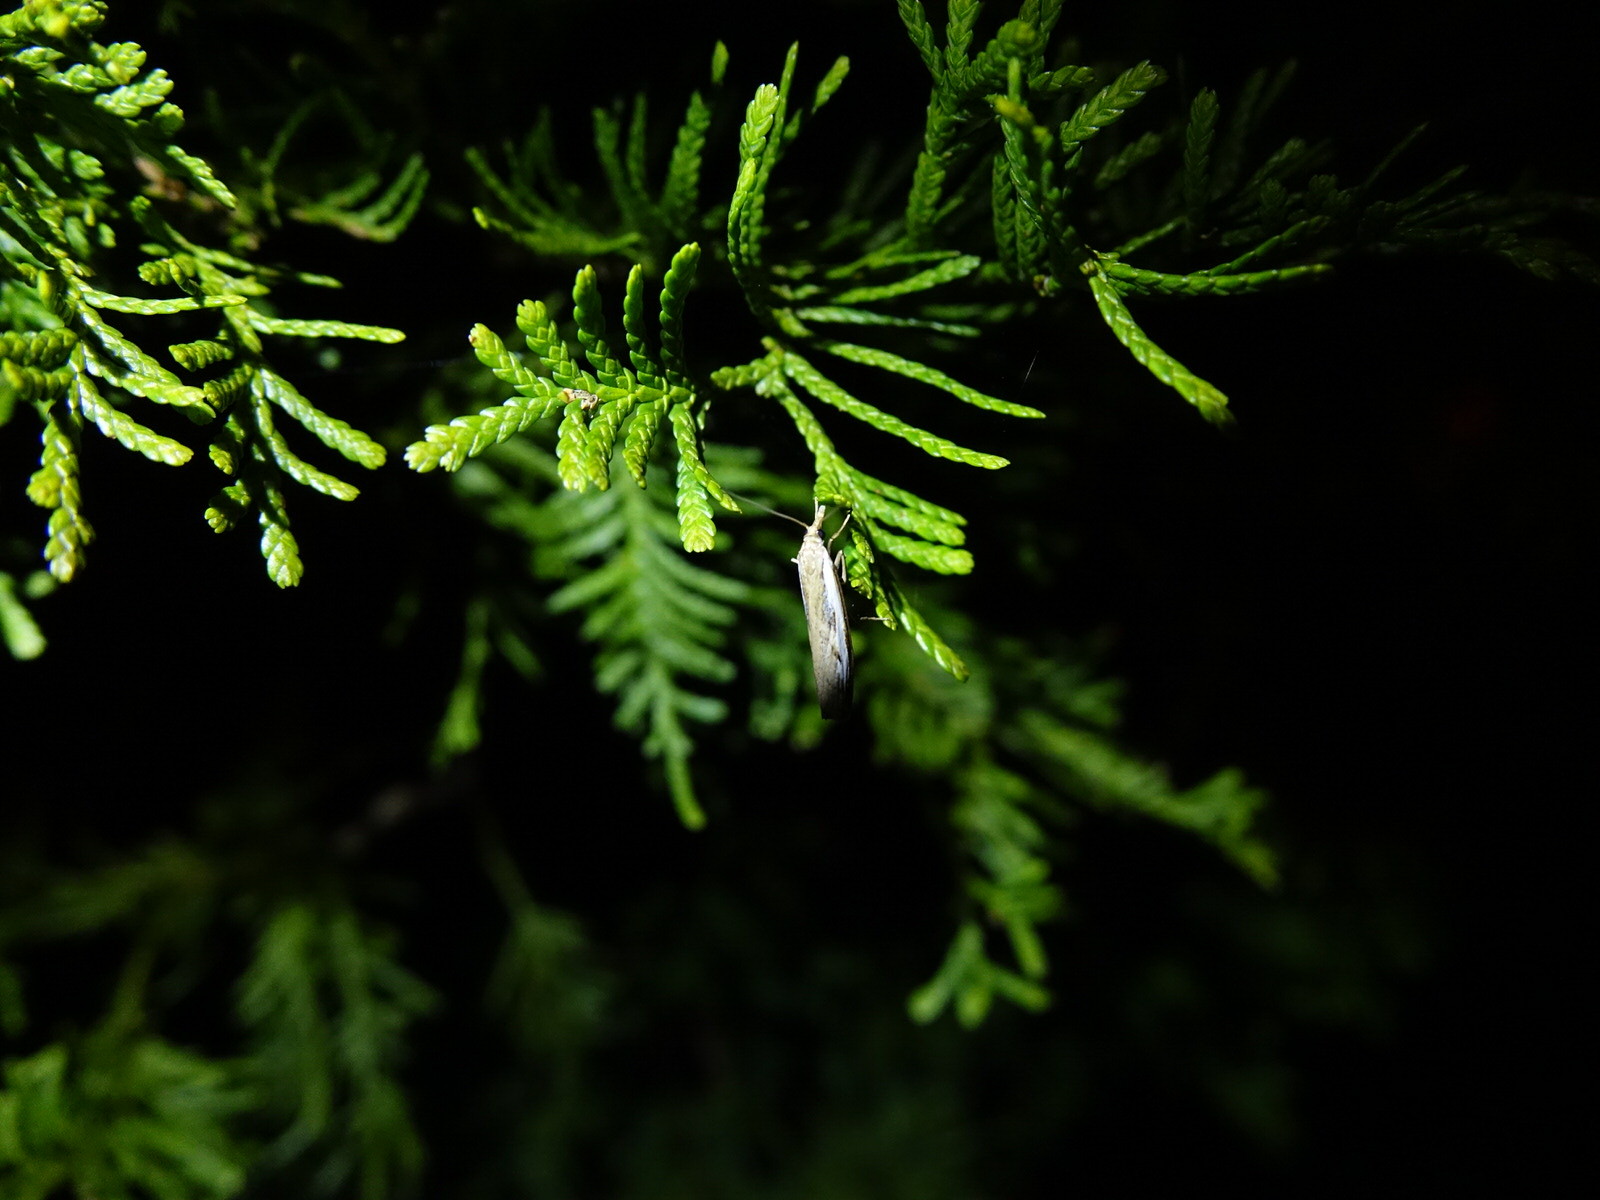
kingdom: Animalia
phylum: Arthropoda
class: Insecta
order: Lepidoptera
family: Crambidae
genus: Orocrambus
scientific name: Orocrambus flexuosellus
